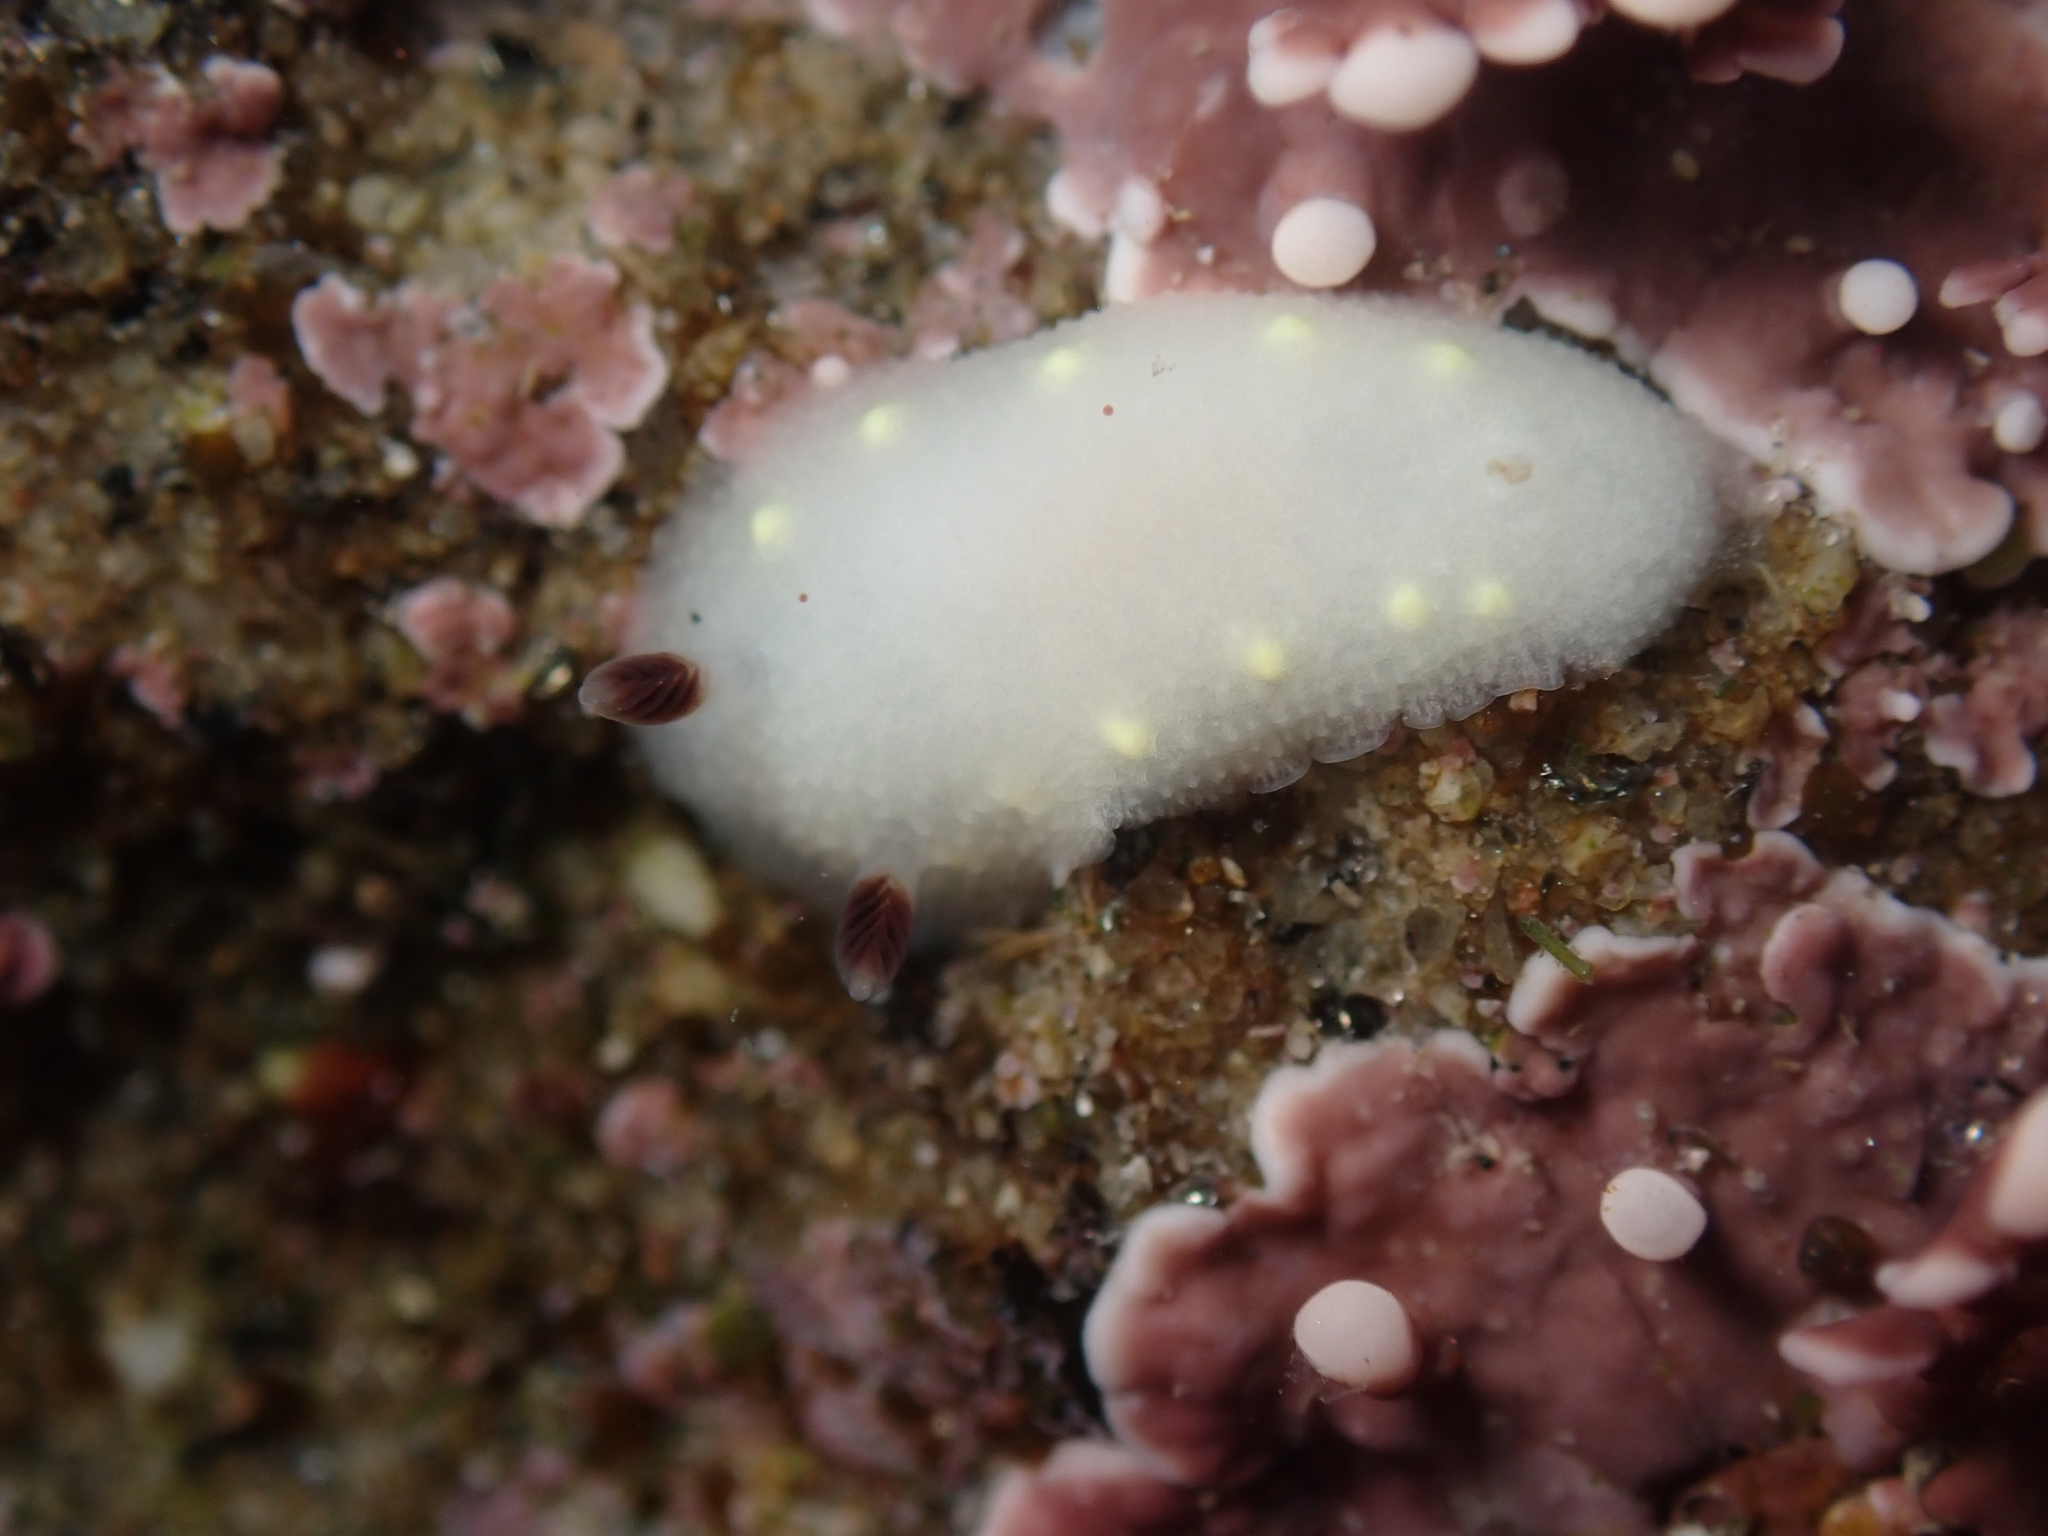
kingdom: Animalia
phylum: Mollusca
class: Gastropoda
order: Nudibranchia
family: Cadlinidae
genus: Cadlina
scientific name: Cadlina flavomaculata
